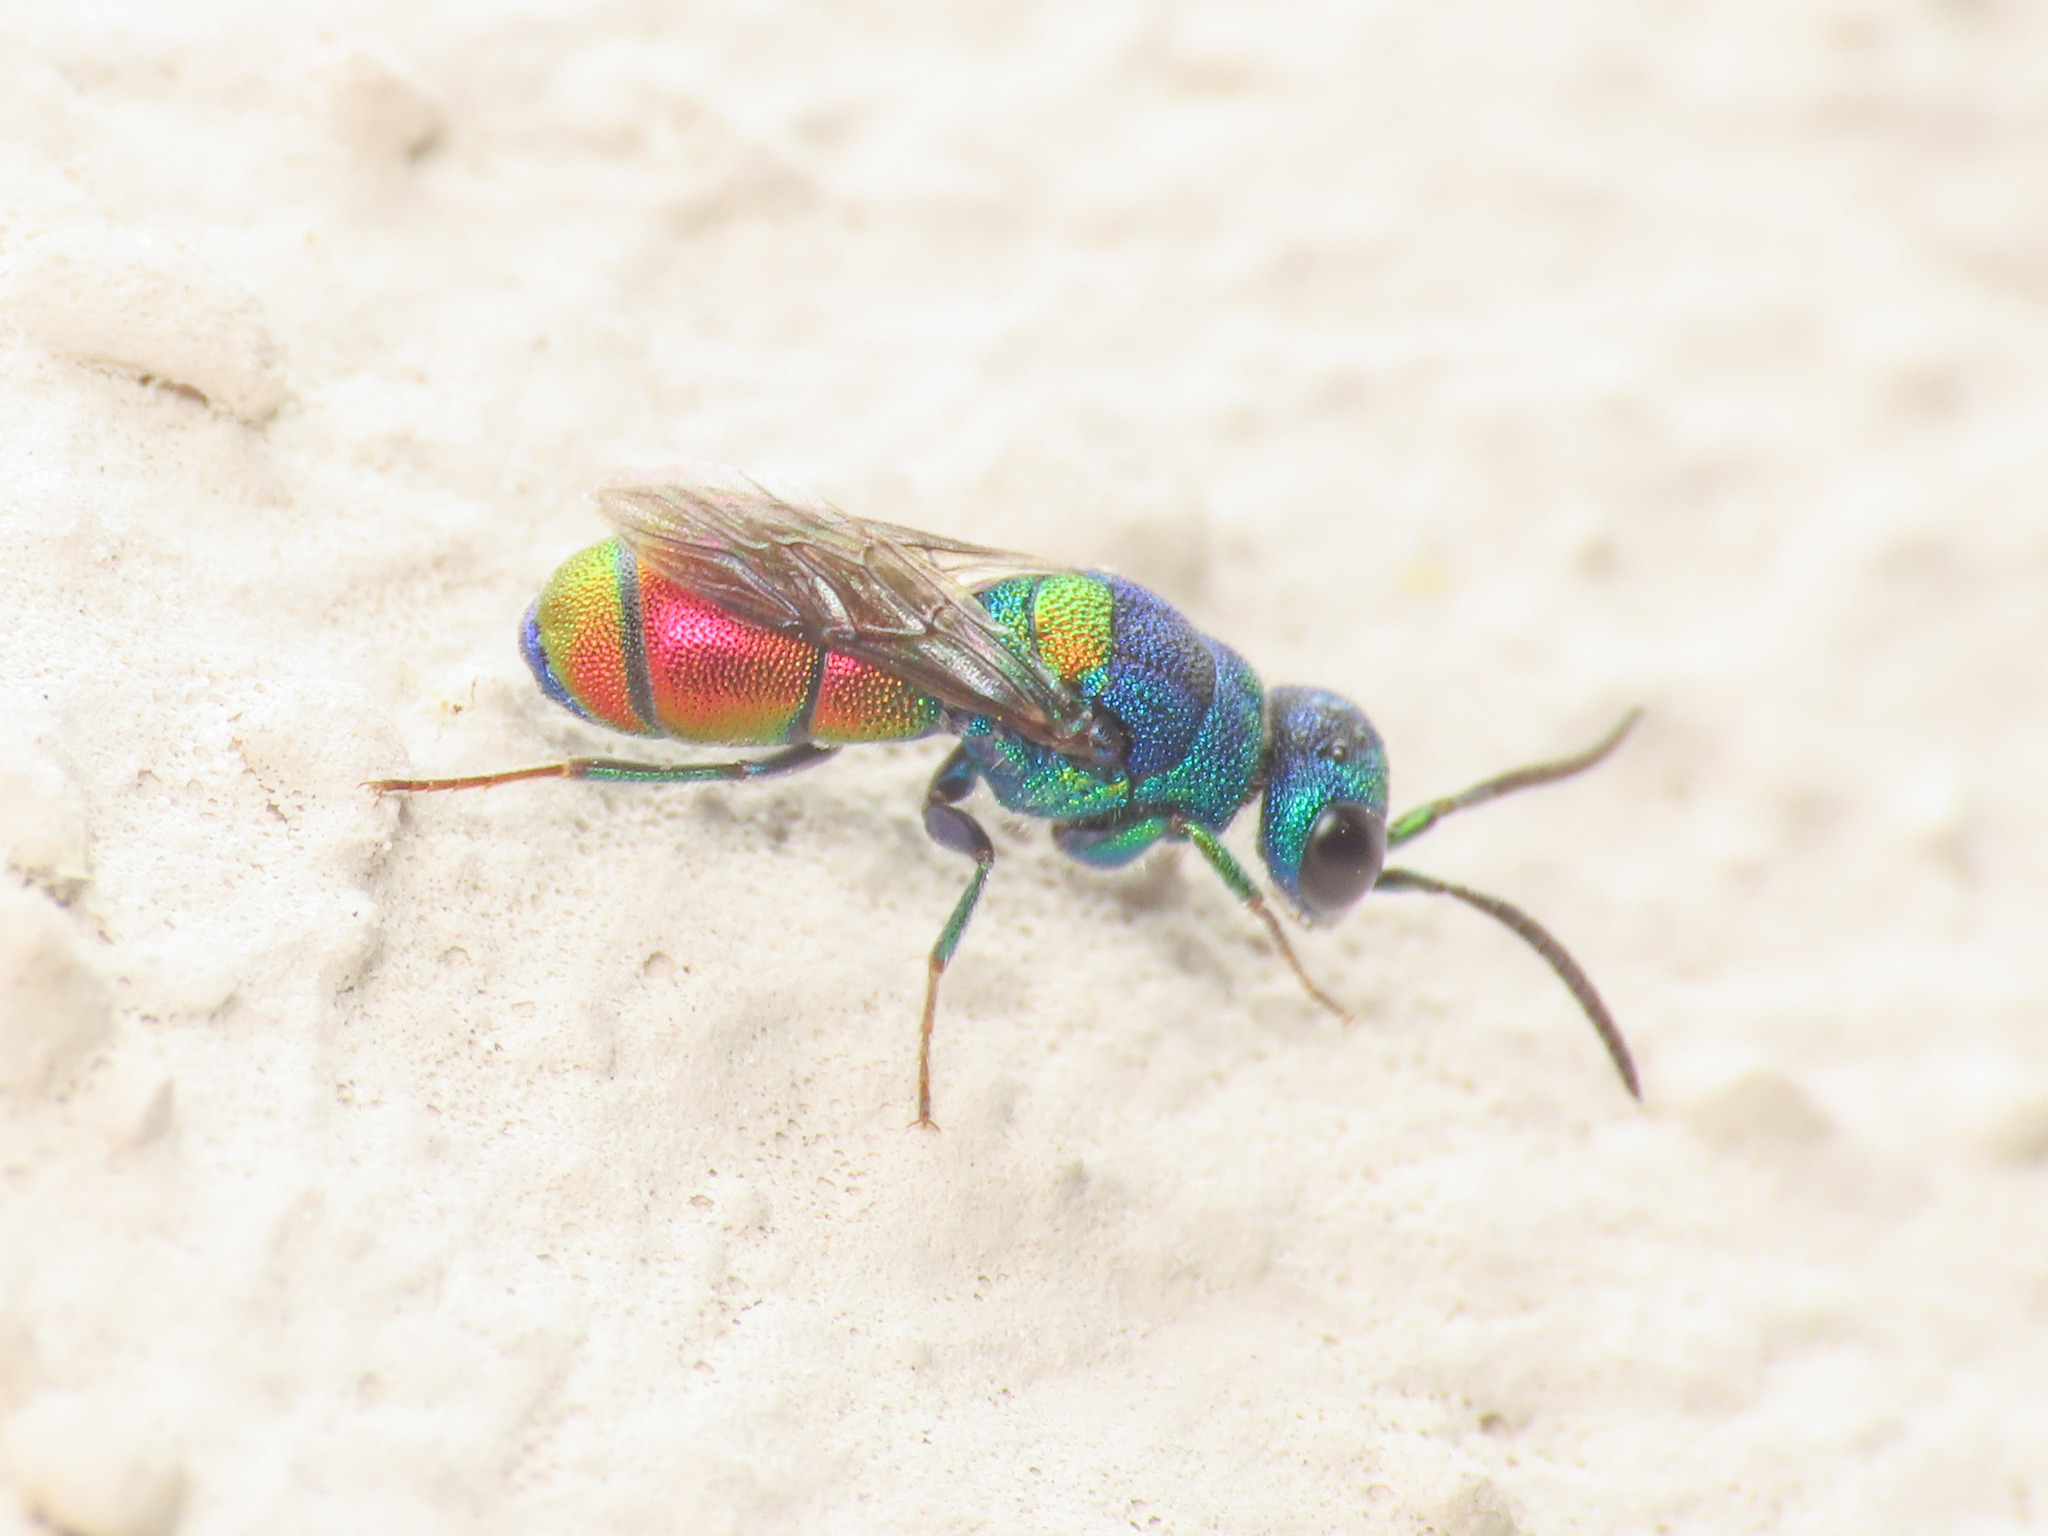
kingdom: Animalia
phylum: Arthropoda
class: Insecta
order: Hymenoptera
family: Chrysididae
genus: Chrysis
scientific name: Chrysis scutellaris
